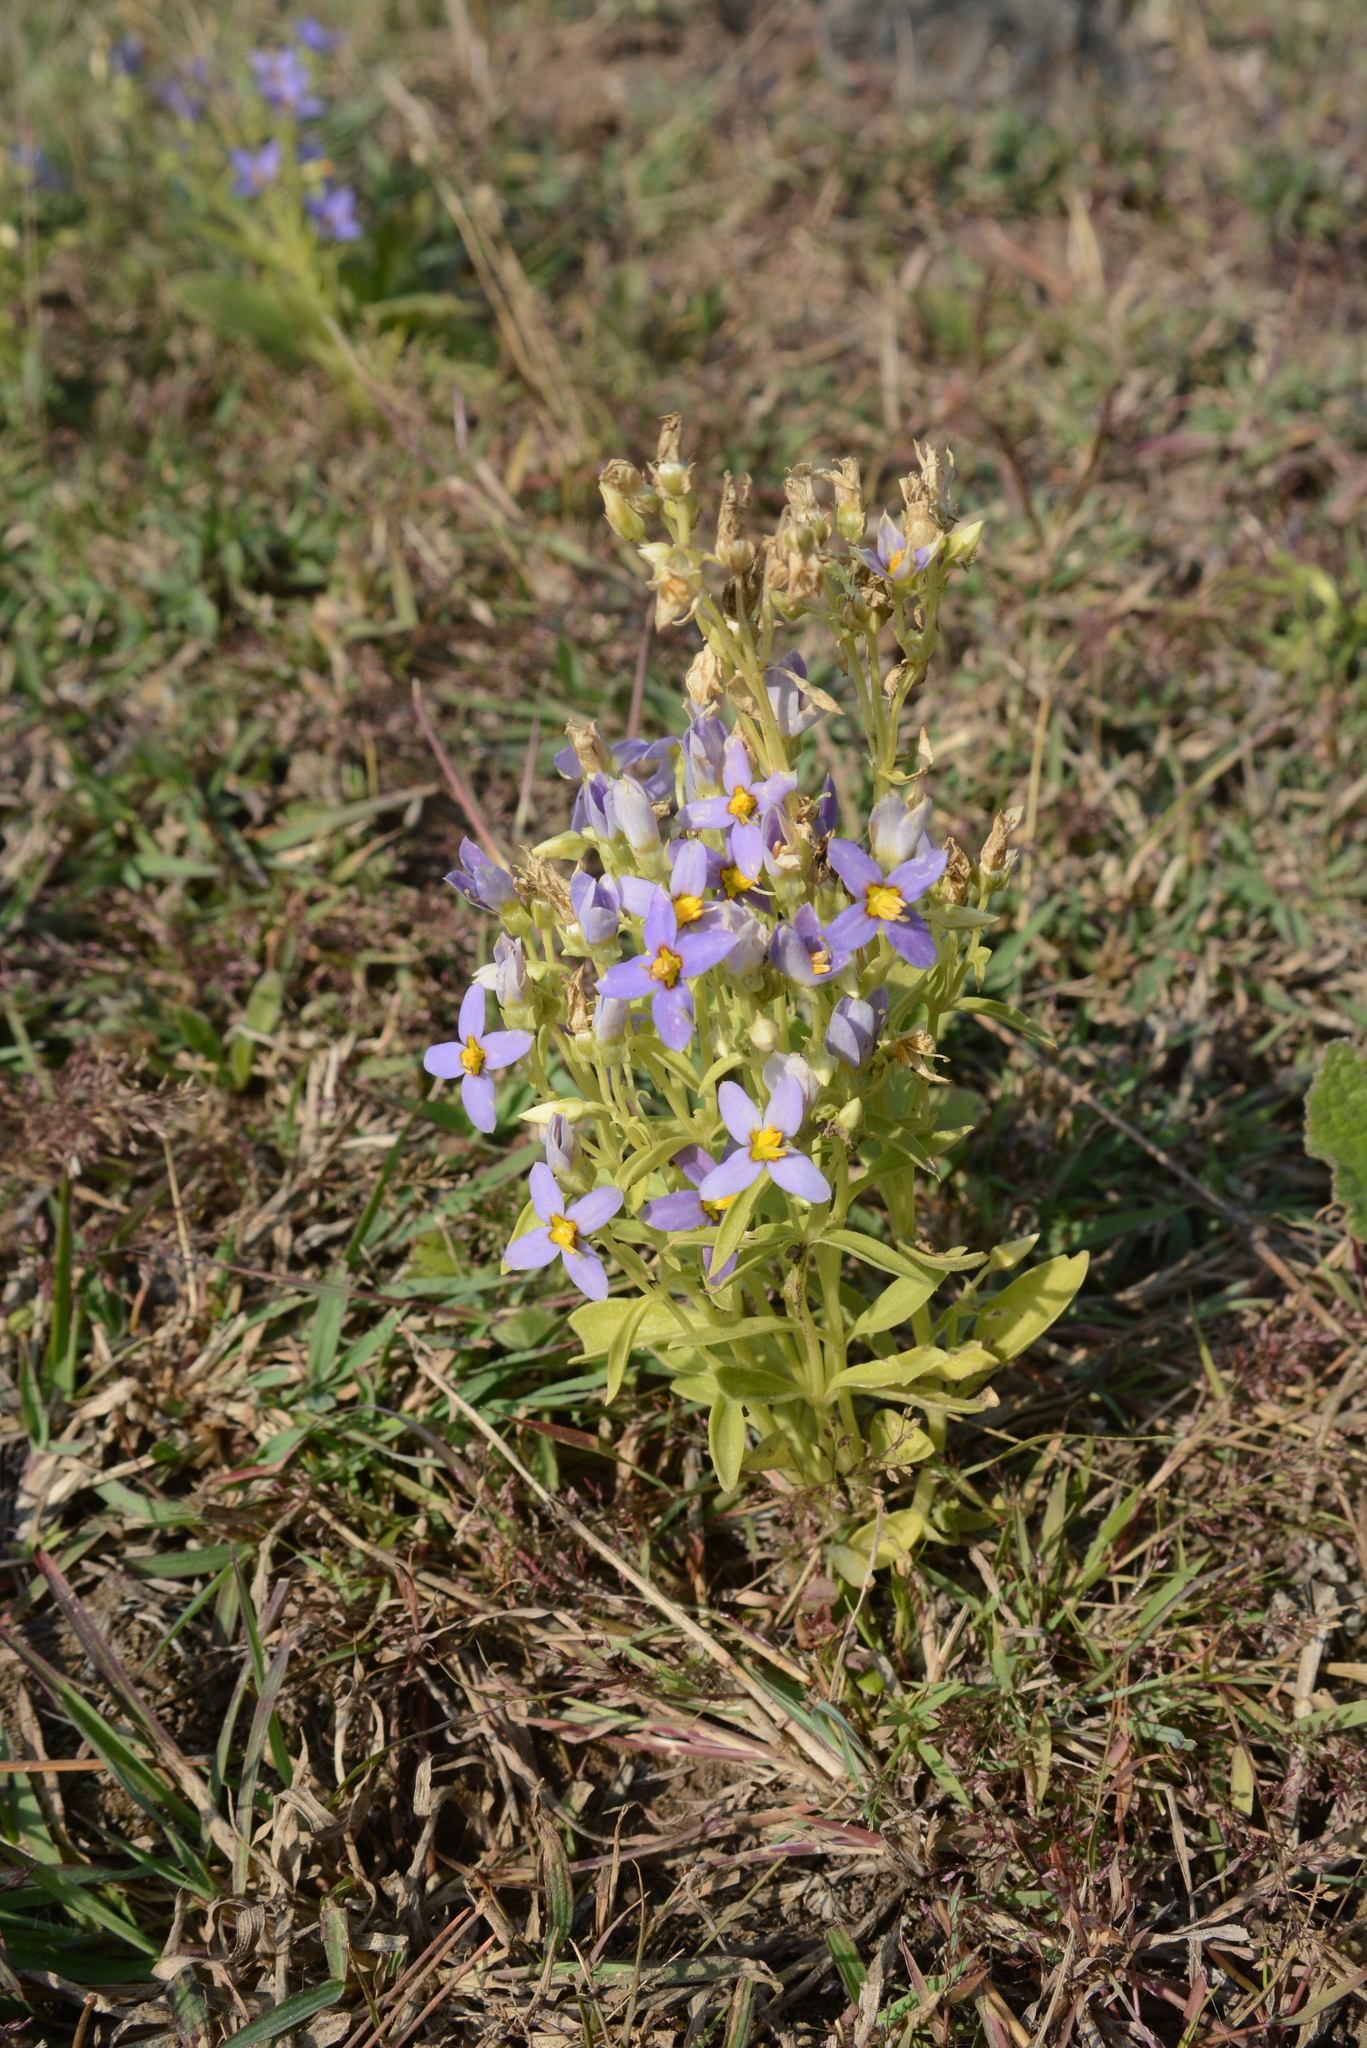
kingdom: Plantae
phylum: Tracheophyta
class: Magnoliopsida
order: Gentianales
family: Gentianaceae
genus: Exacum
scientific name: Exacum lawii
